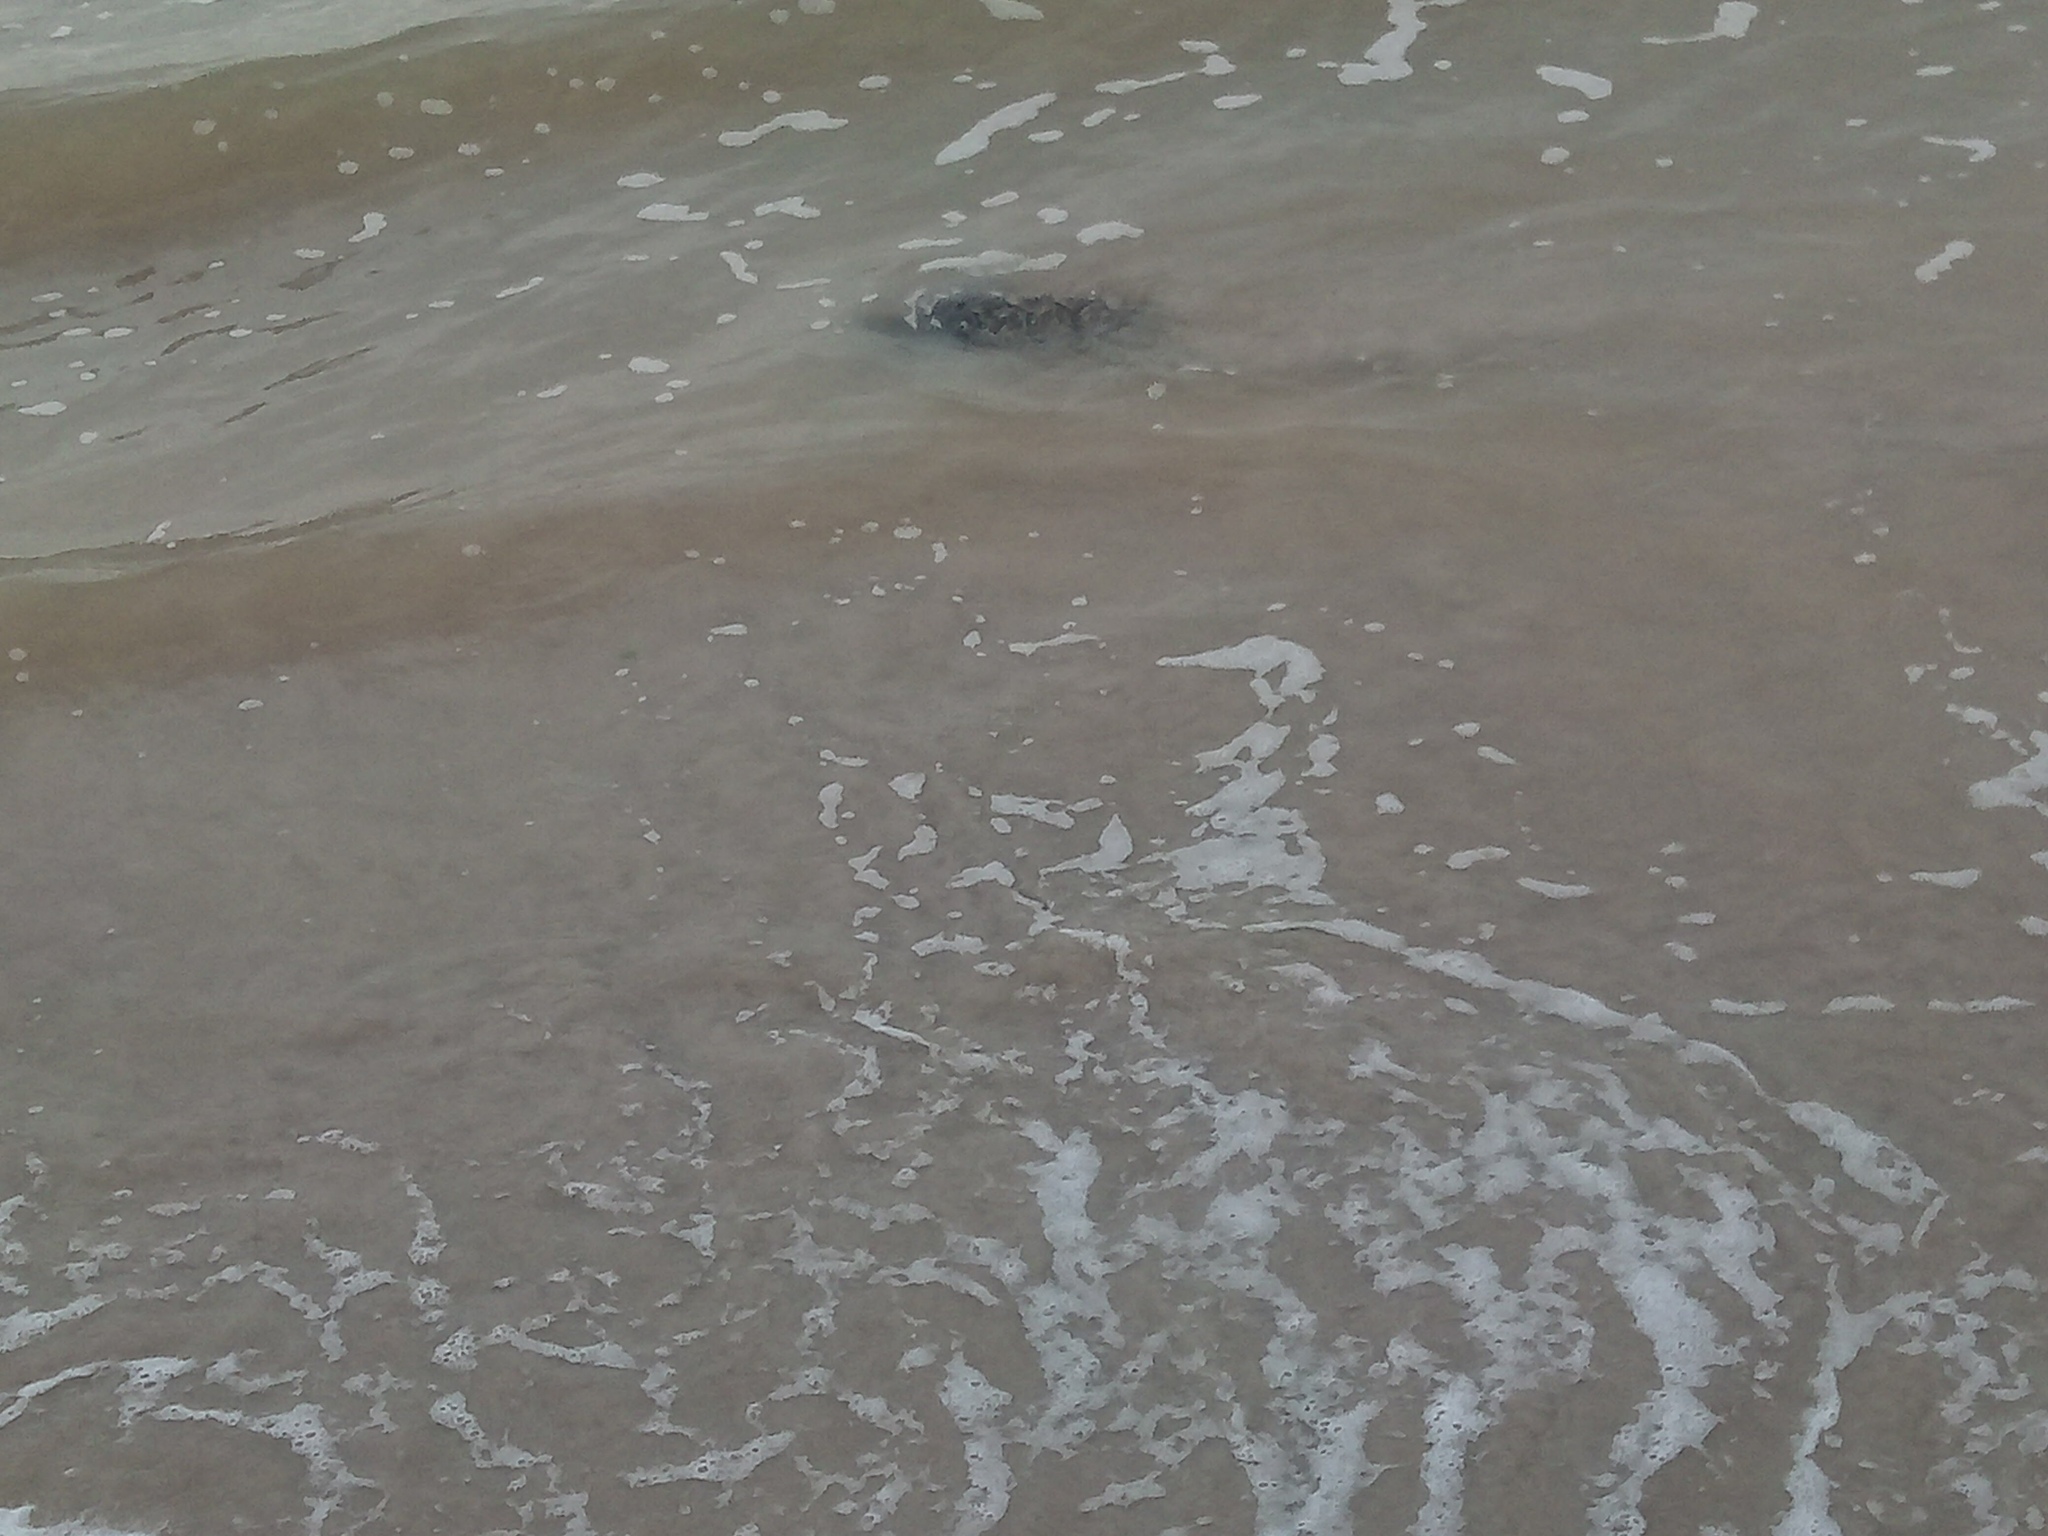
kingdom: Animalia
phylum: Chordata
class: Testudines
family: Cheloniidae
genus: Chelonia
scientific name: Chelonia mydas
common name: Green turtle
